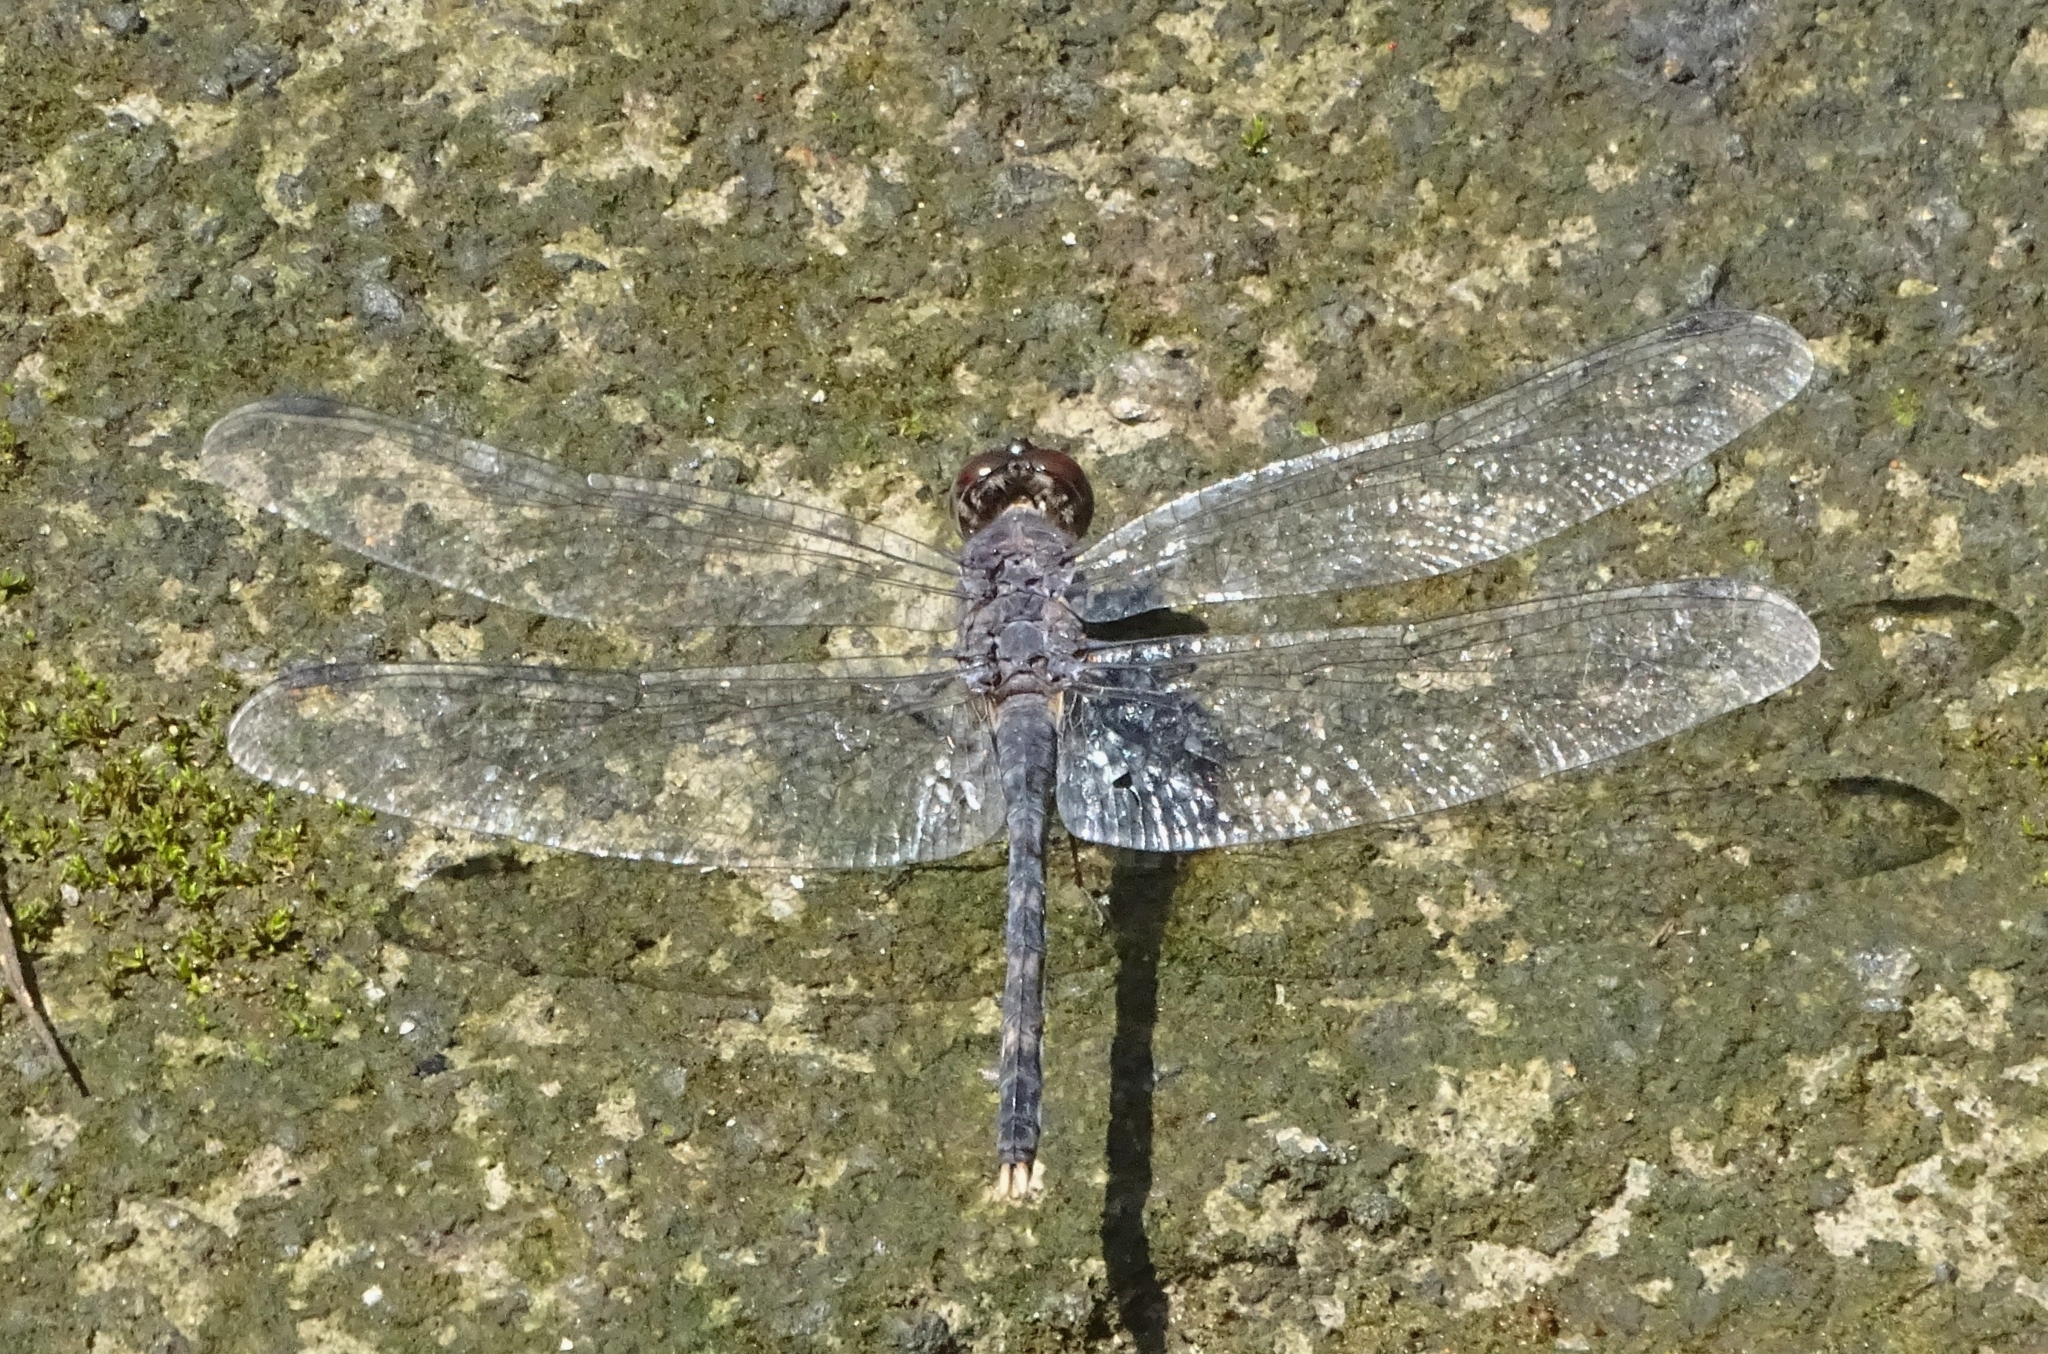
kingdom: Animalia
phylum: Arthropoda
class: Insecta
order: Odonata
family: Libellulidae
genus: Bradinopyga
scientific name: Bradinopyga geminata
